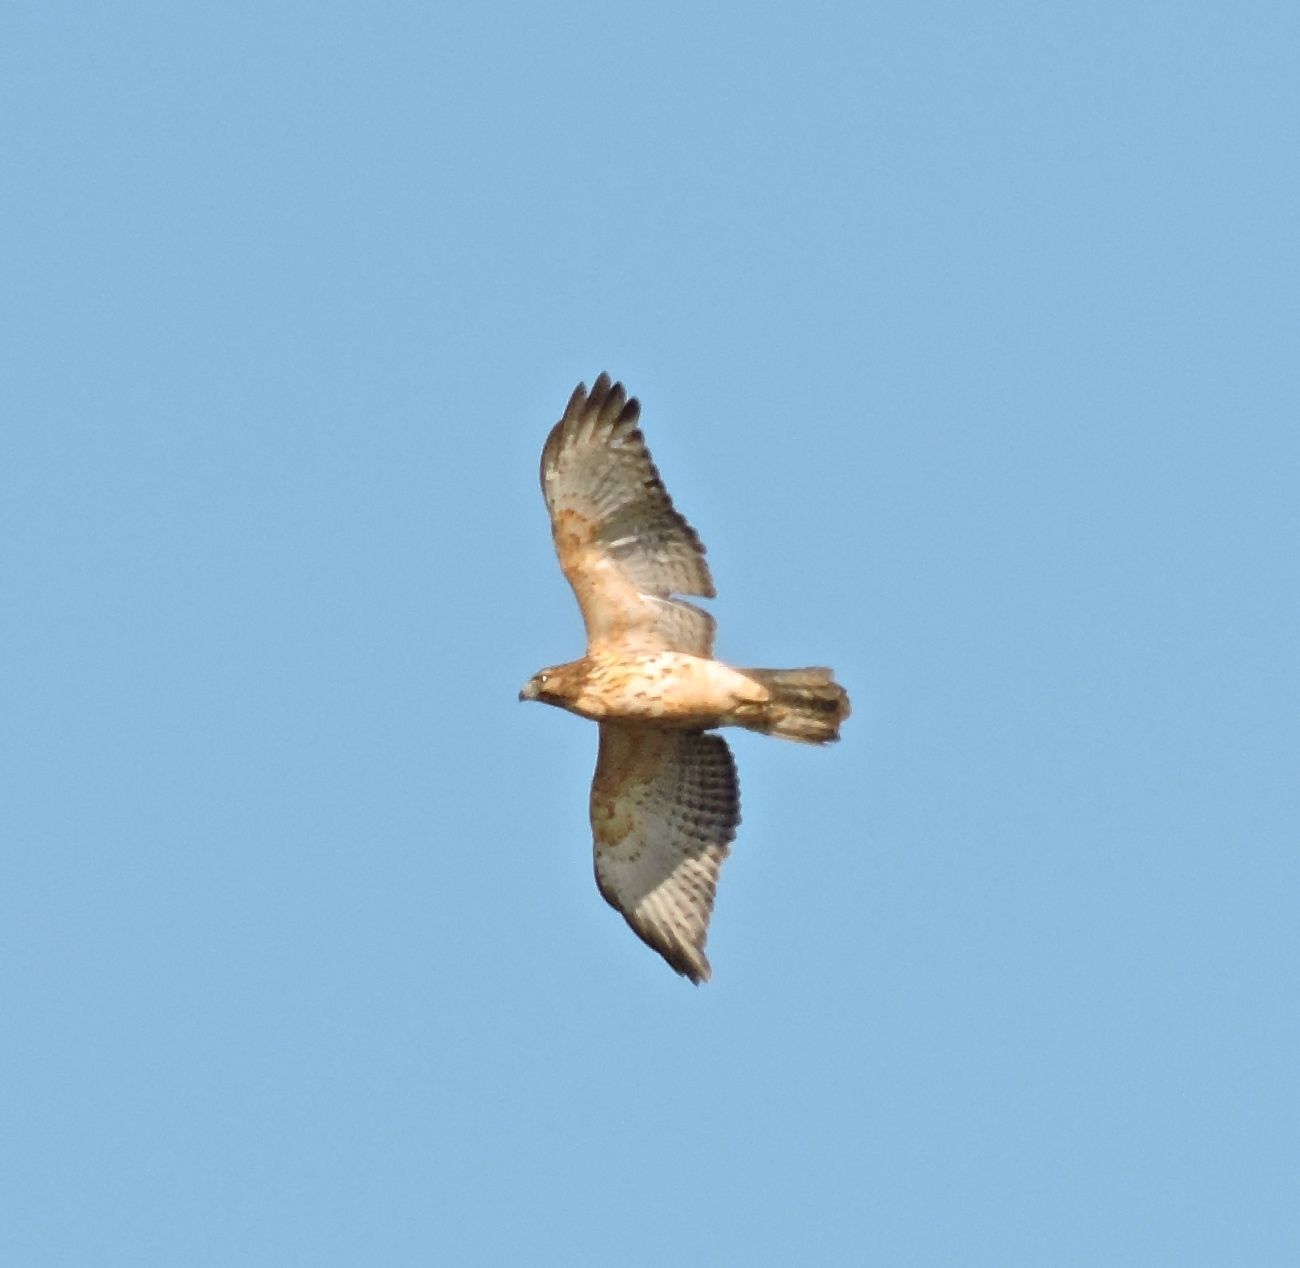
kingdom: Animalia
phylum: Chordata
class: Aves
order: Accipitriformes
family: Accipitridae
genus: Buteo
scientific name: Buteo lineatus
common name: Red-shouldered hawk
